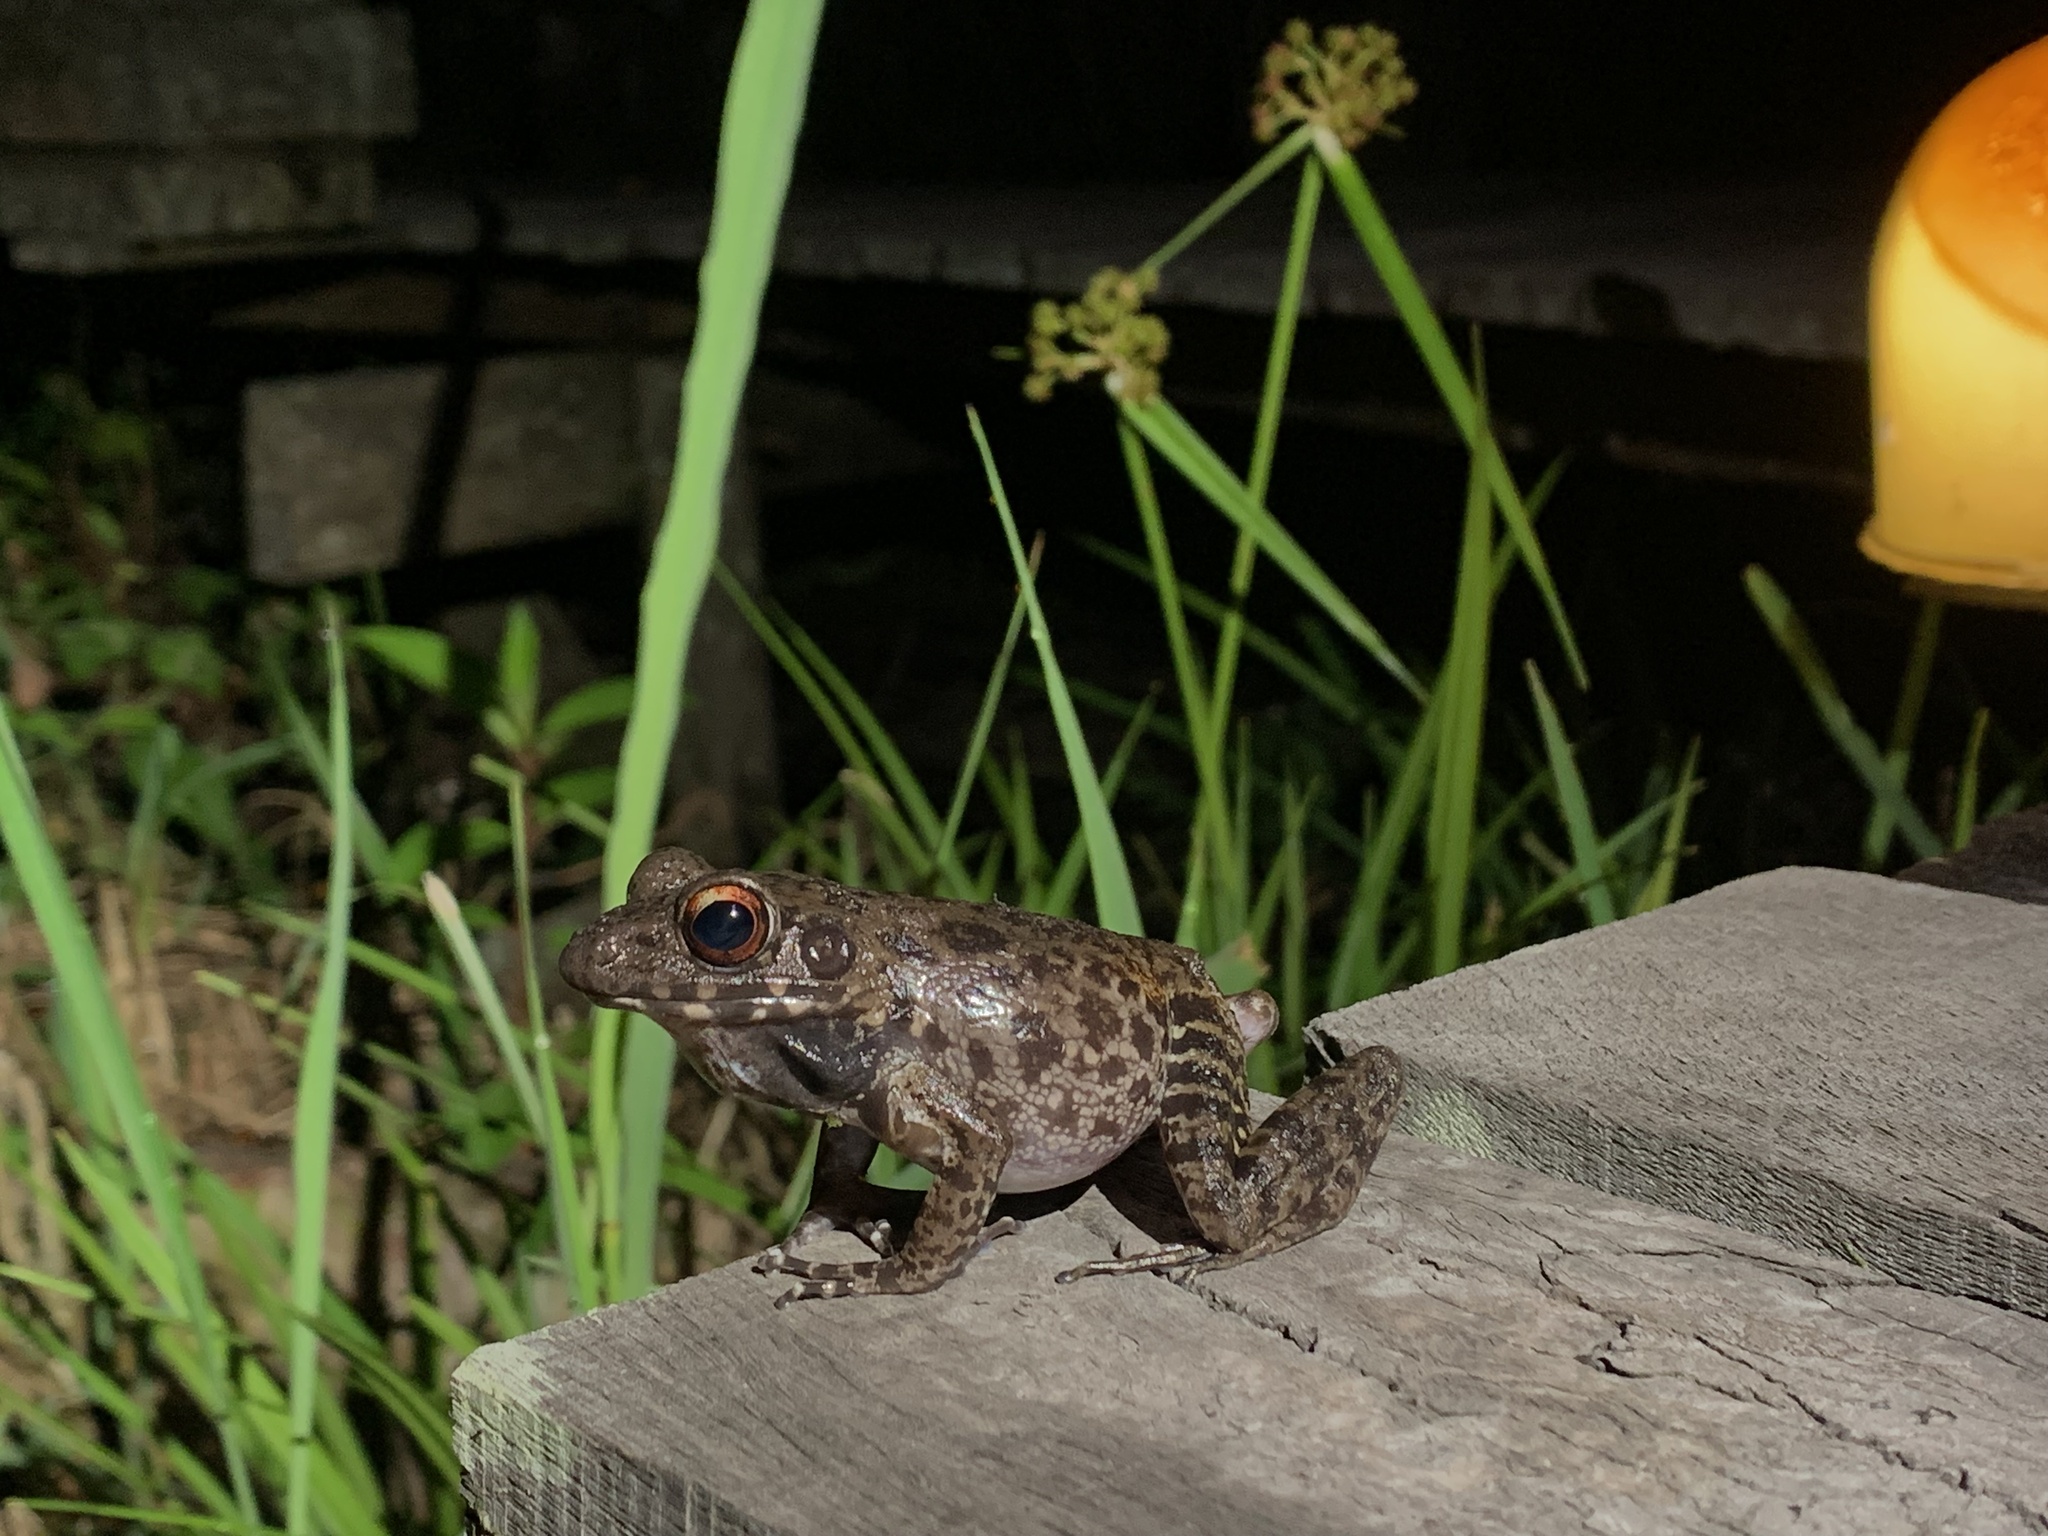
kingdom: Animalia
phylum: Chordata
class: Amphibia
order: Anura
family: Ranidae
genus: Pulchrana
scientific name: Pulchrana glandulosa
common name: Rough-sided frog
